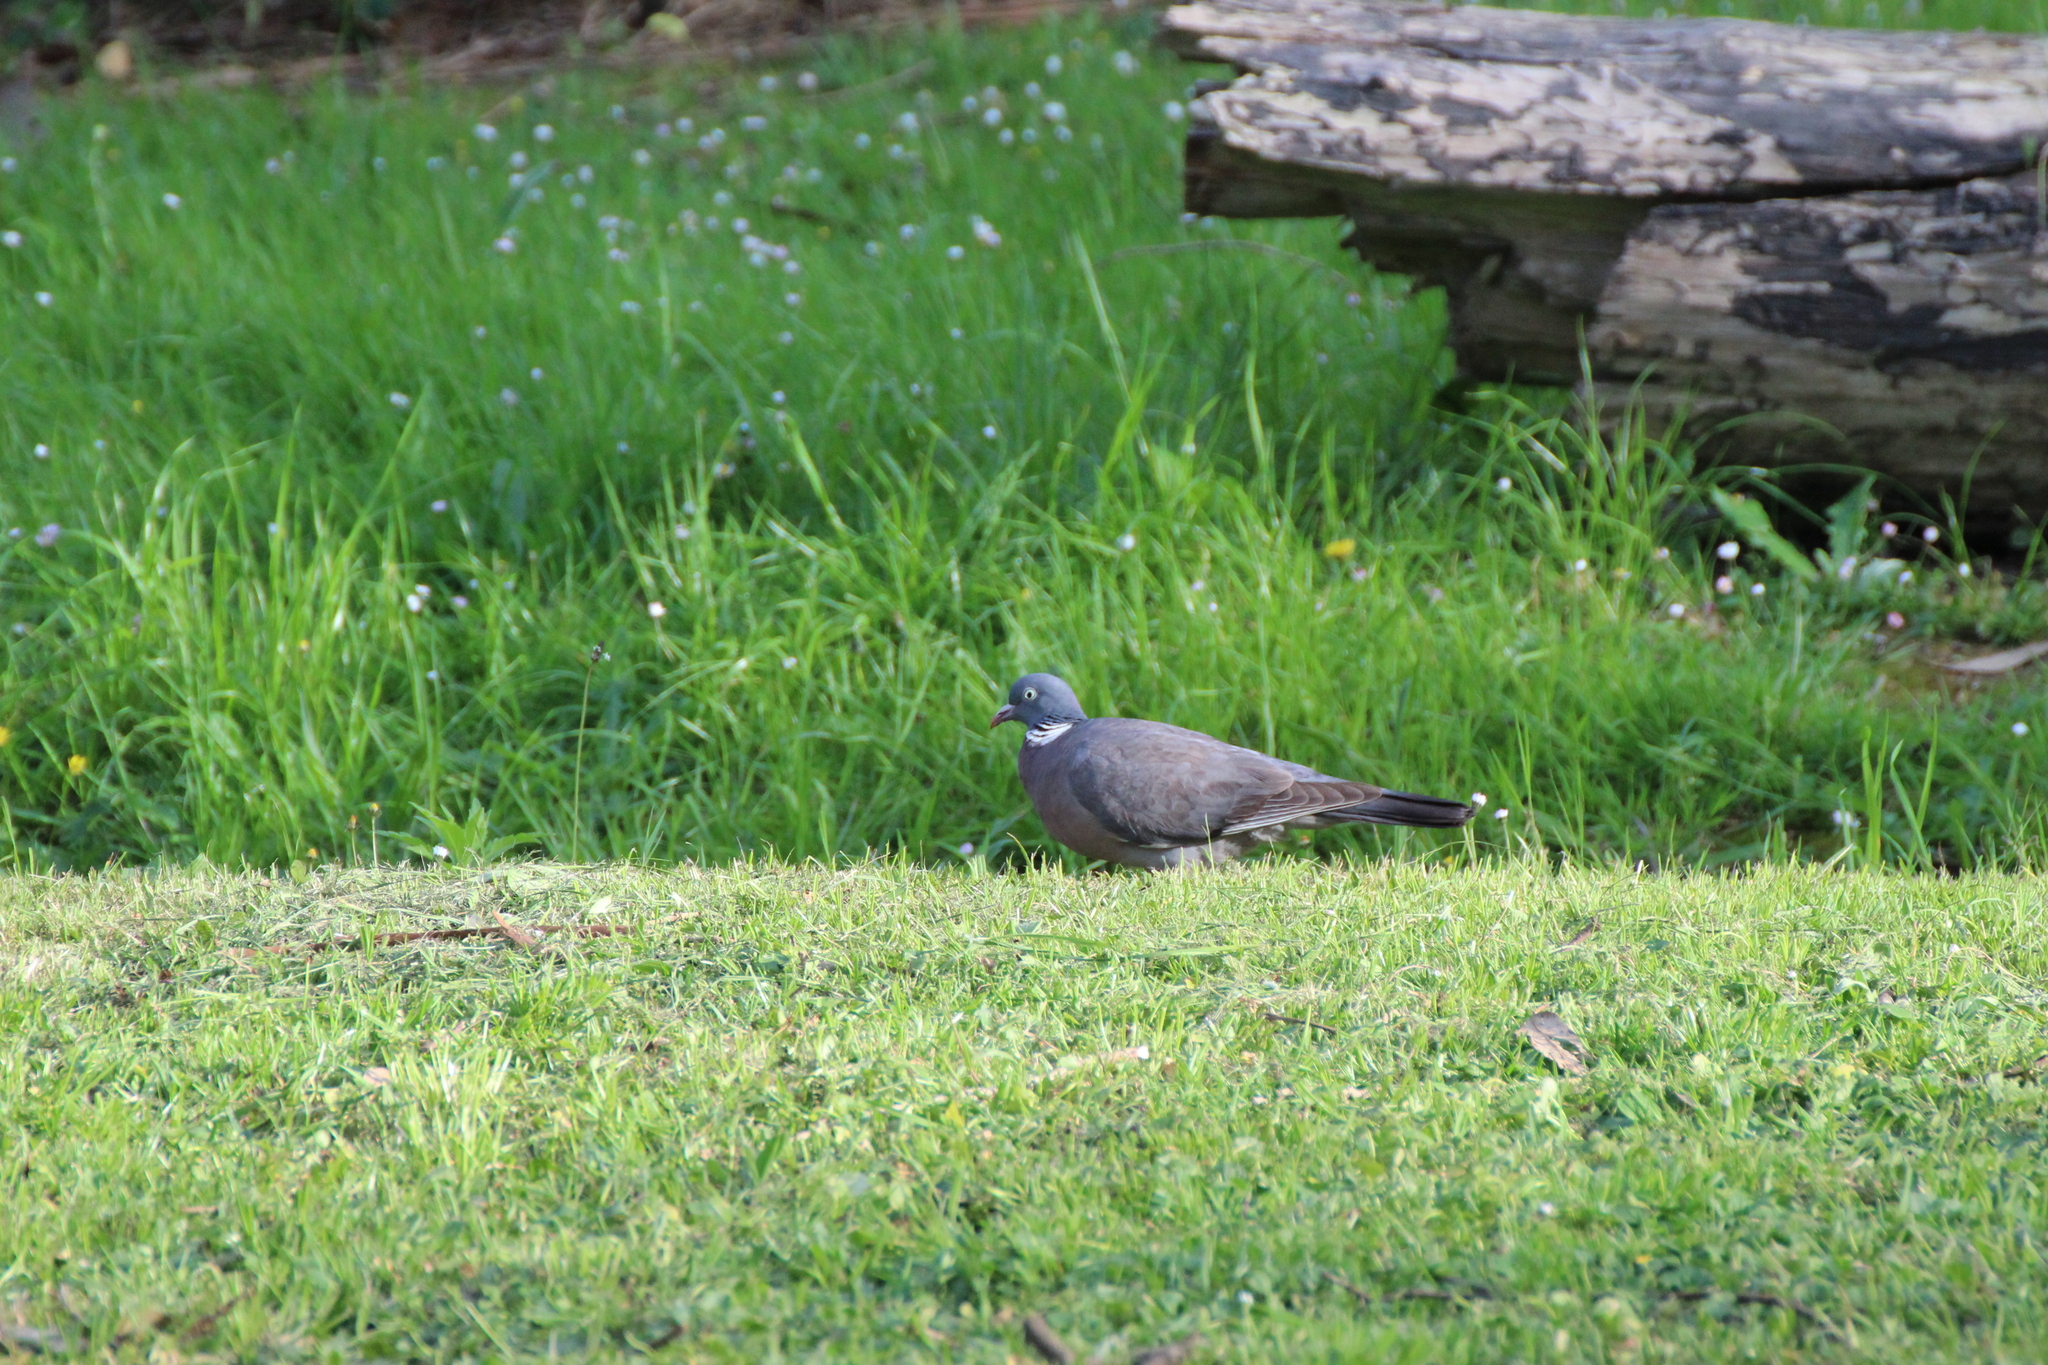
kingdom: Animalia
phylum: Chordata
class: Aves
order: Columbiformes
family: Columbidae
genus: Columba
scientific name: Columba palumbus
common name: Common wood pigeon
